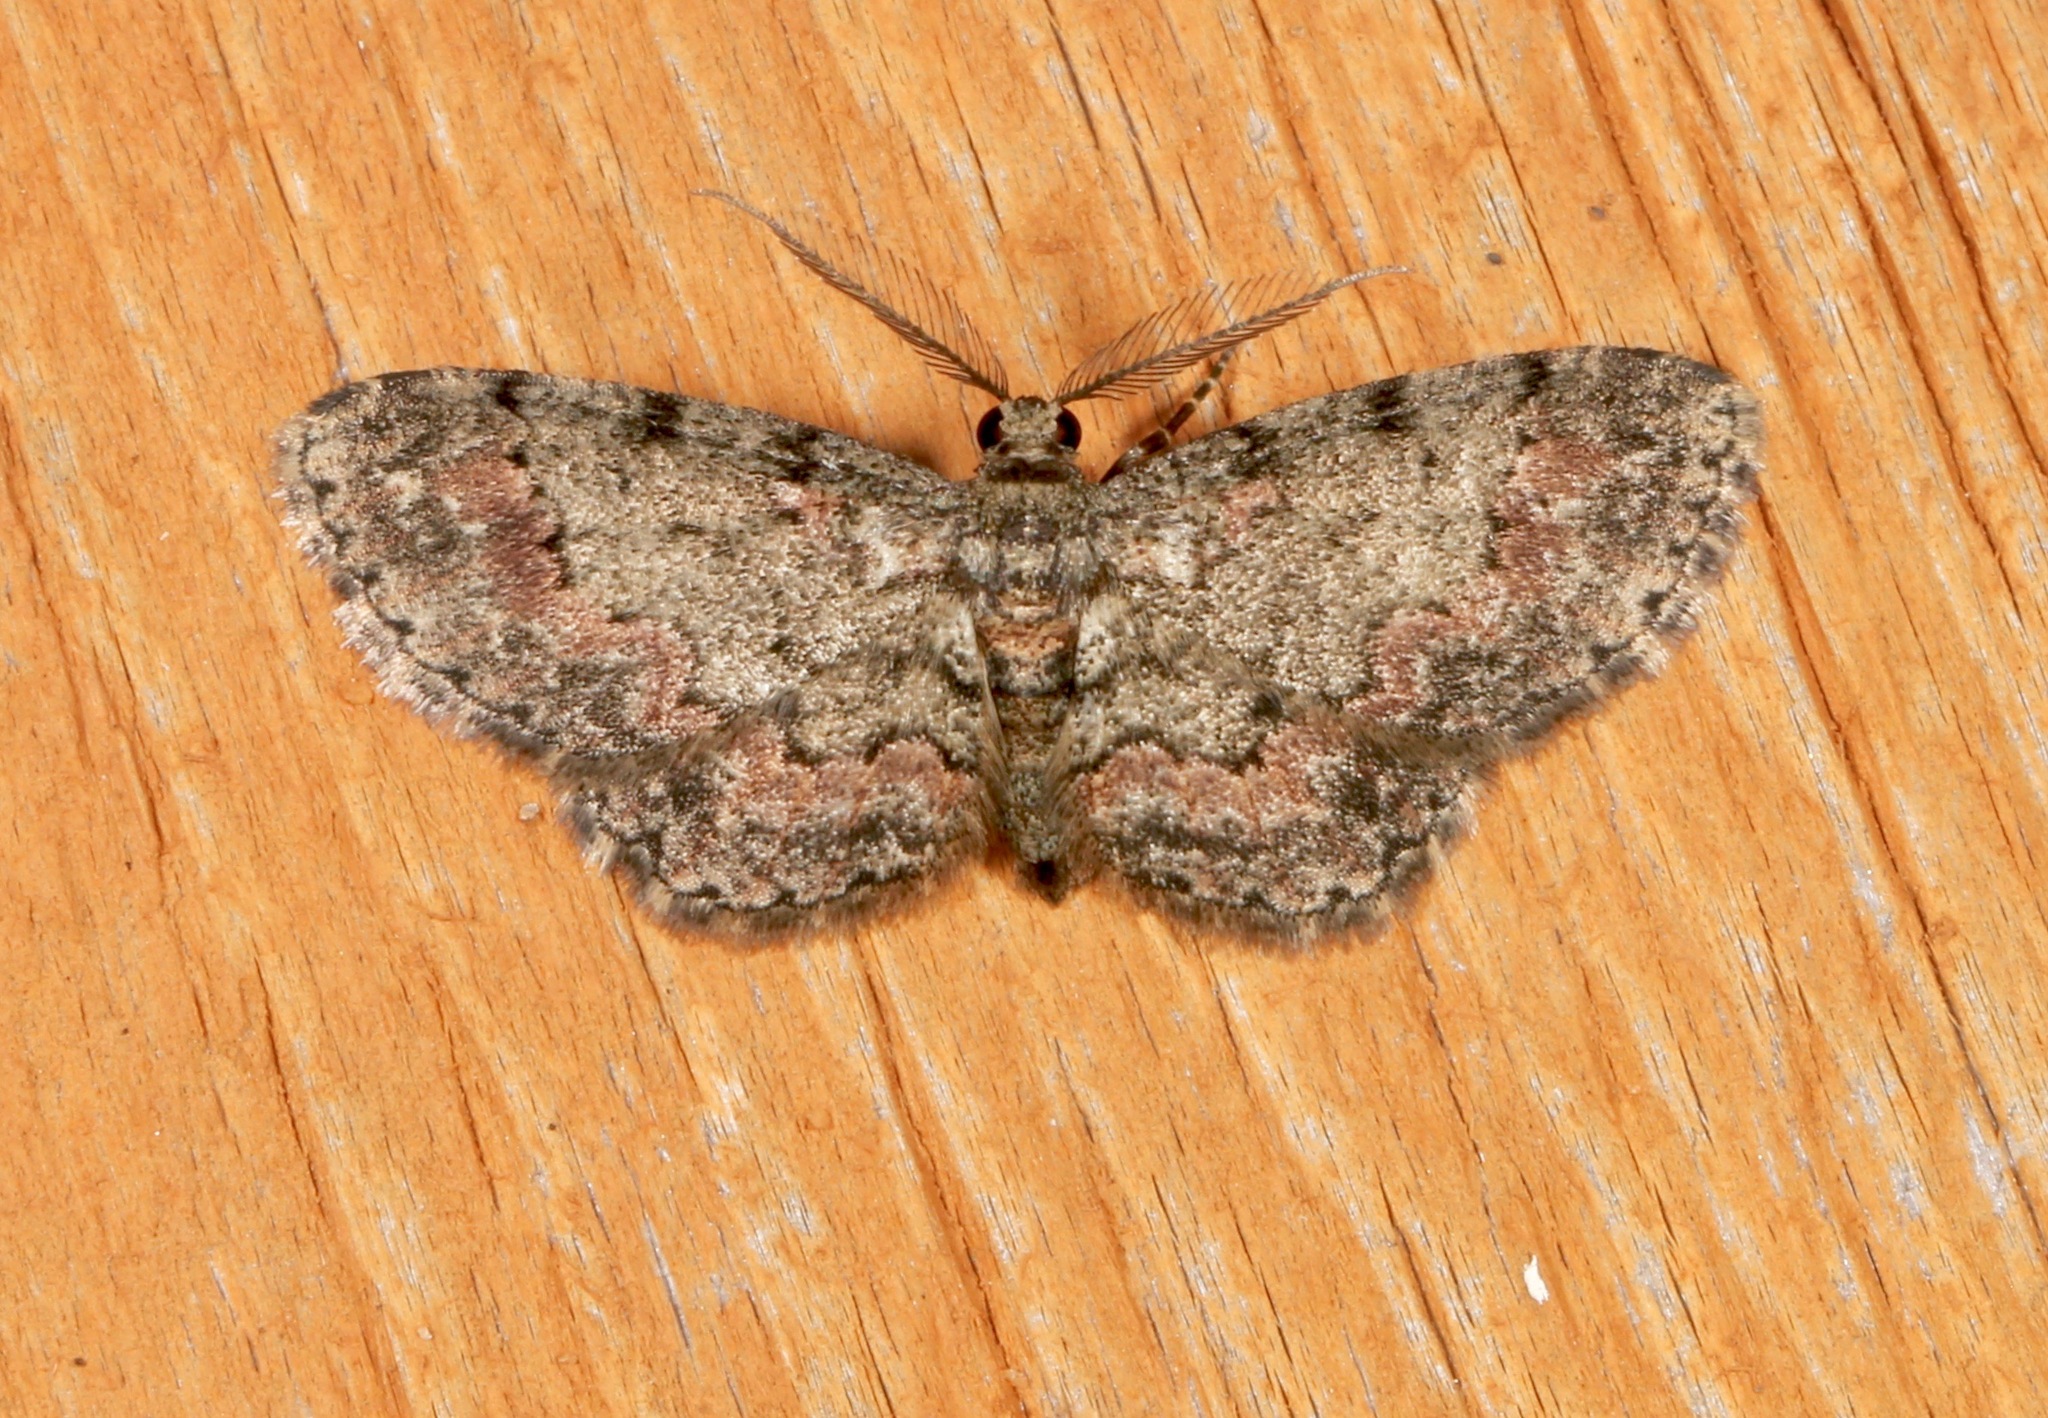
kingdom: Animalia
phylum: Arthropoda
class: Insecta
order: Lepidoptera
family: Geometridae
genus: Glenoides
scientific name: Glenoides texanaria
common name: Texas gray
